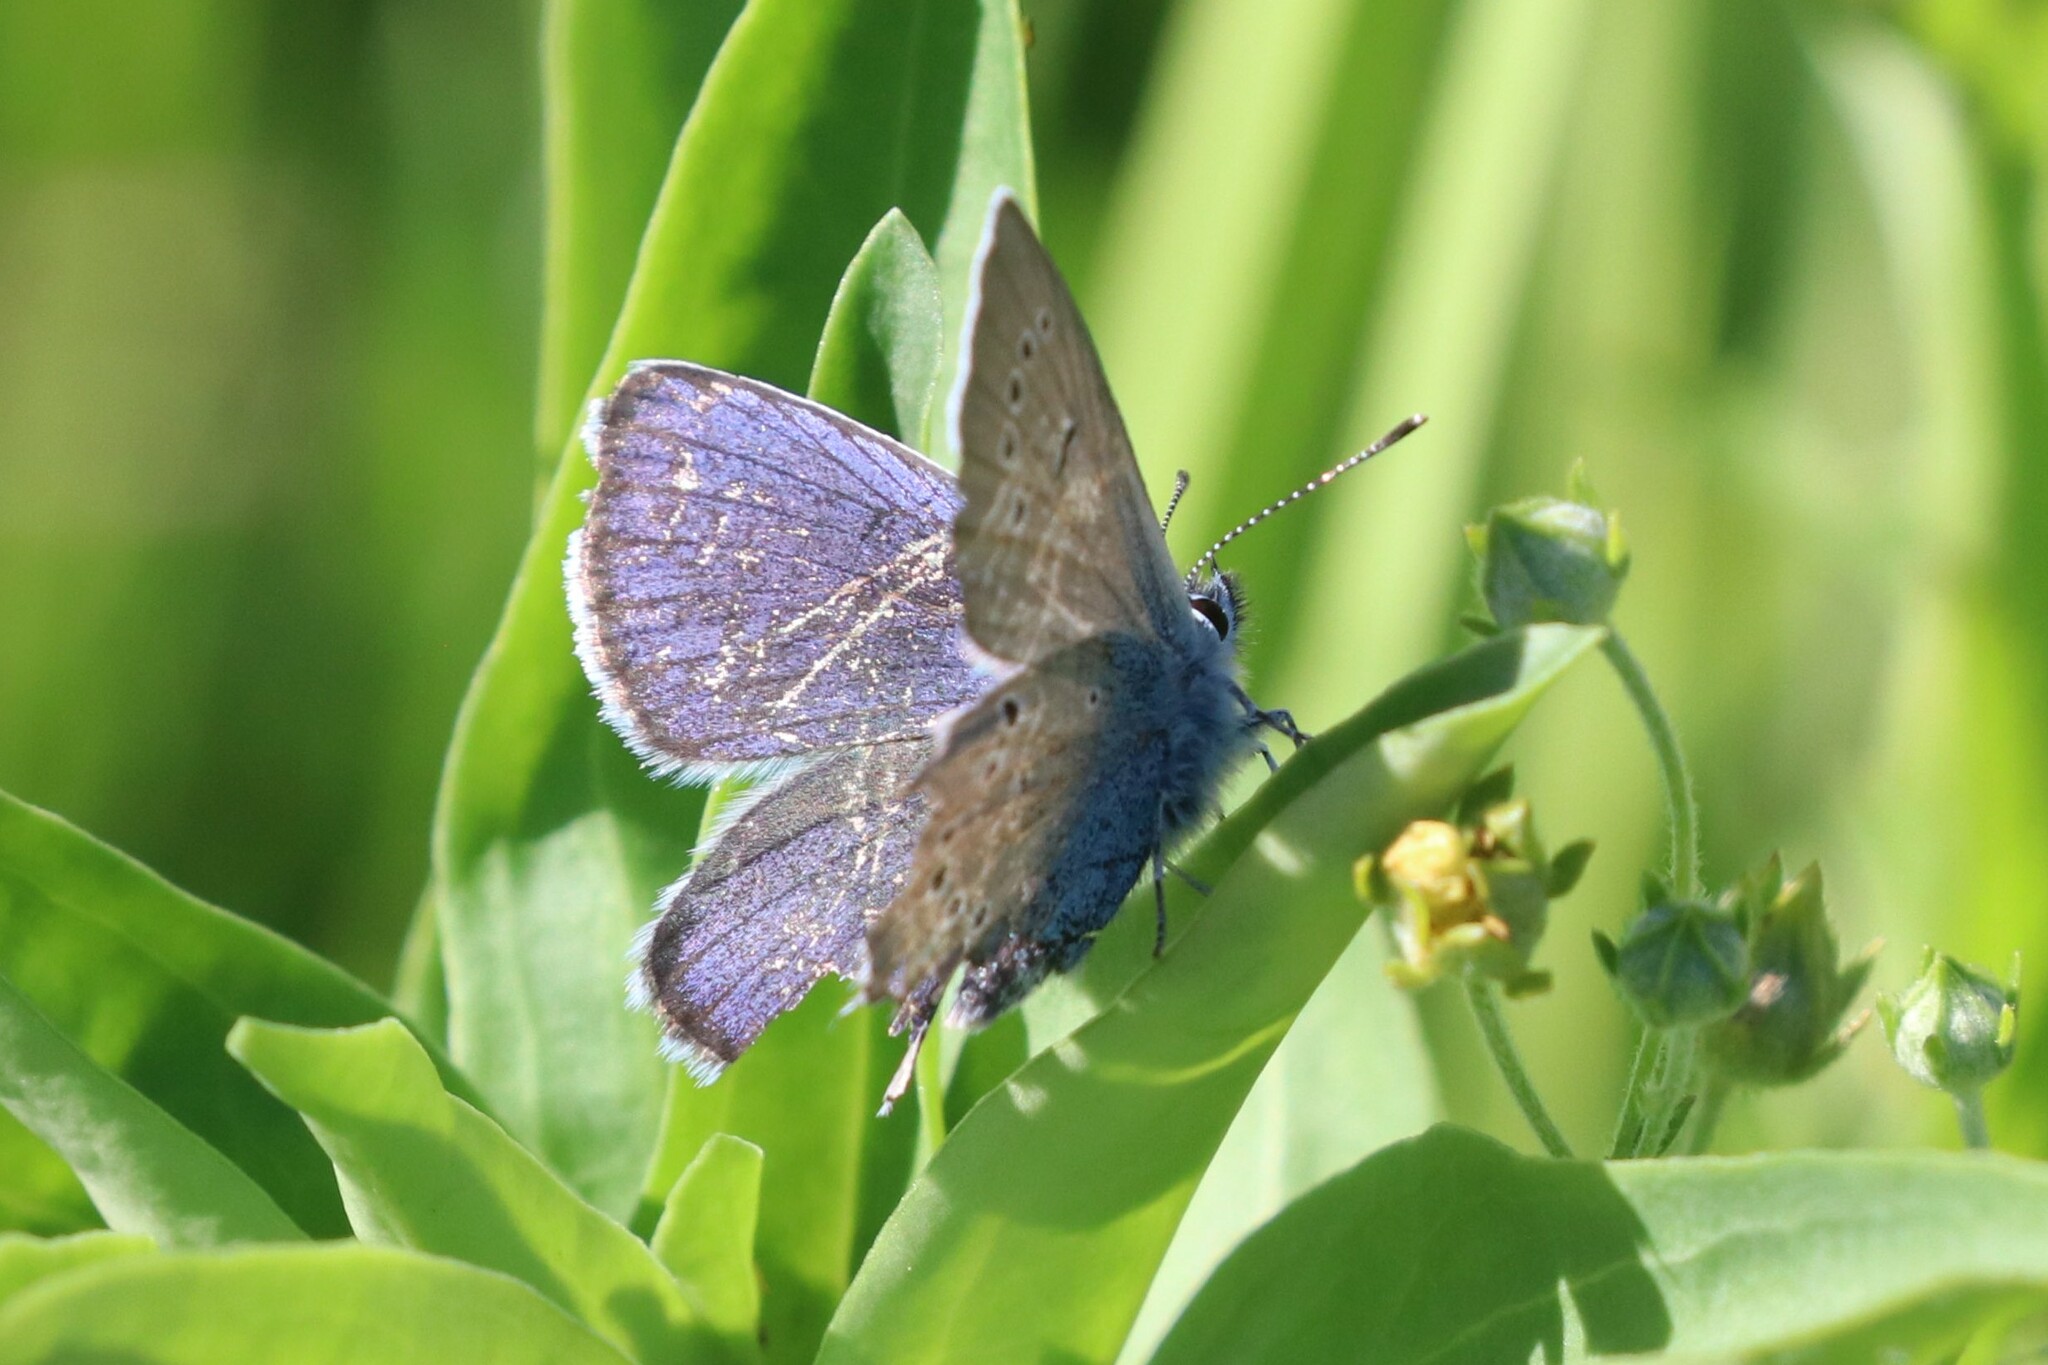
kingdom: Animalia
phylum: Arthropoda
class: Insecta
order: Lepidoptera
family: Lycaenidae
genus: Cyaniris
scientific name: Cyaniris semiargus
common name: Mazarine blue
